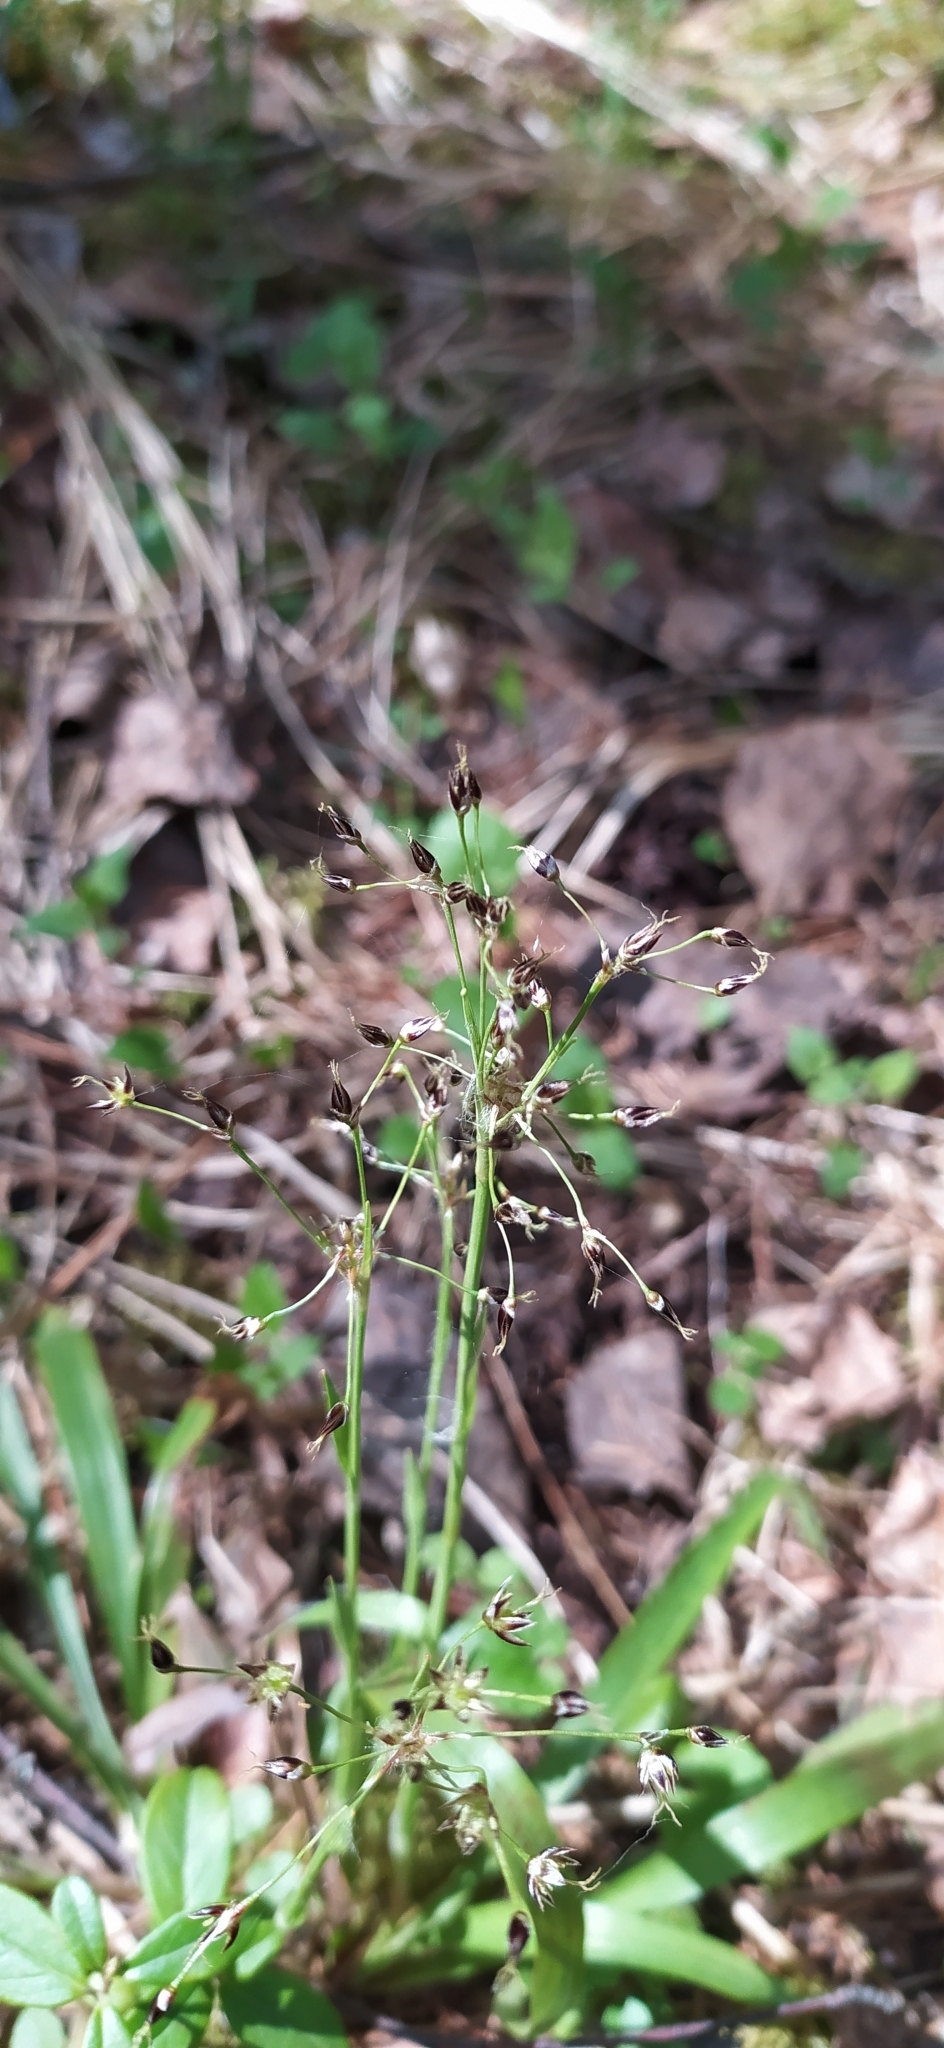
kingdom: Plantae
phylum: Tracheophyta
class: Liliopsida
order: Poales
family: Juncaceae
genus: Luzula
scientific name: Luzula pilosa
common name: Hairy wood-rush
